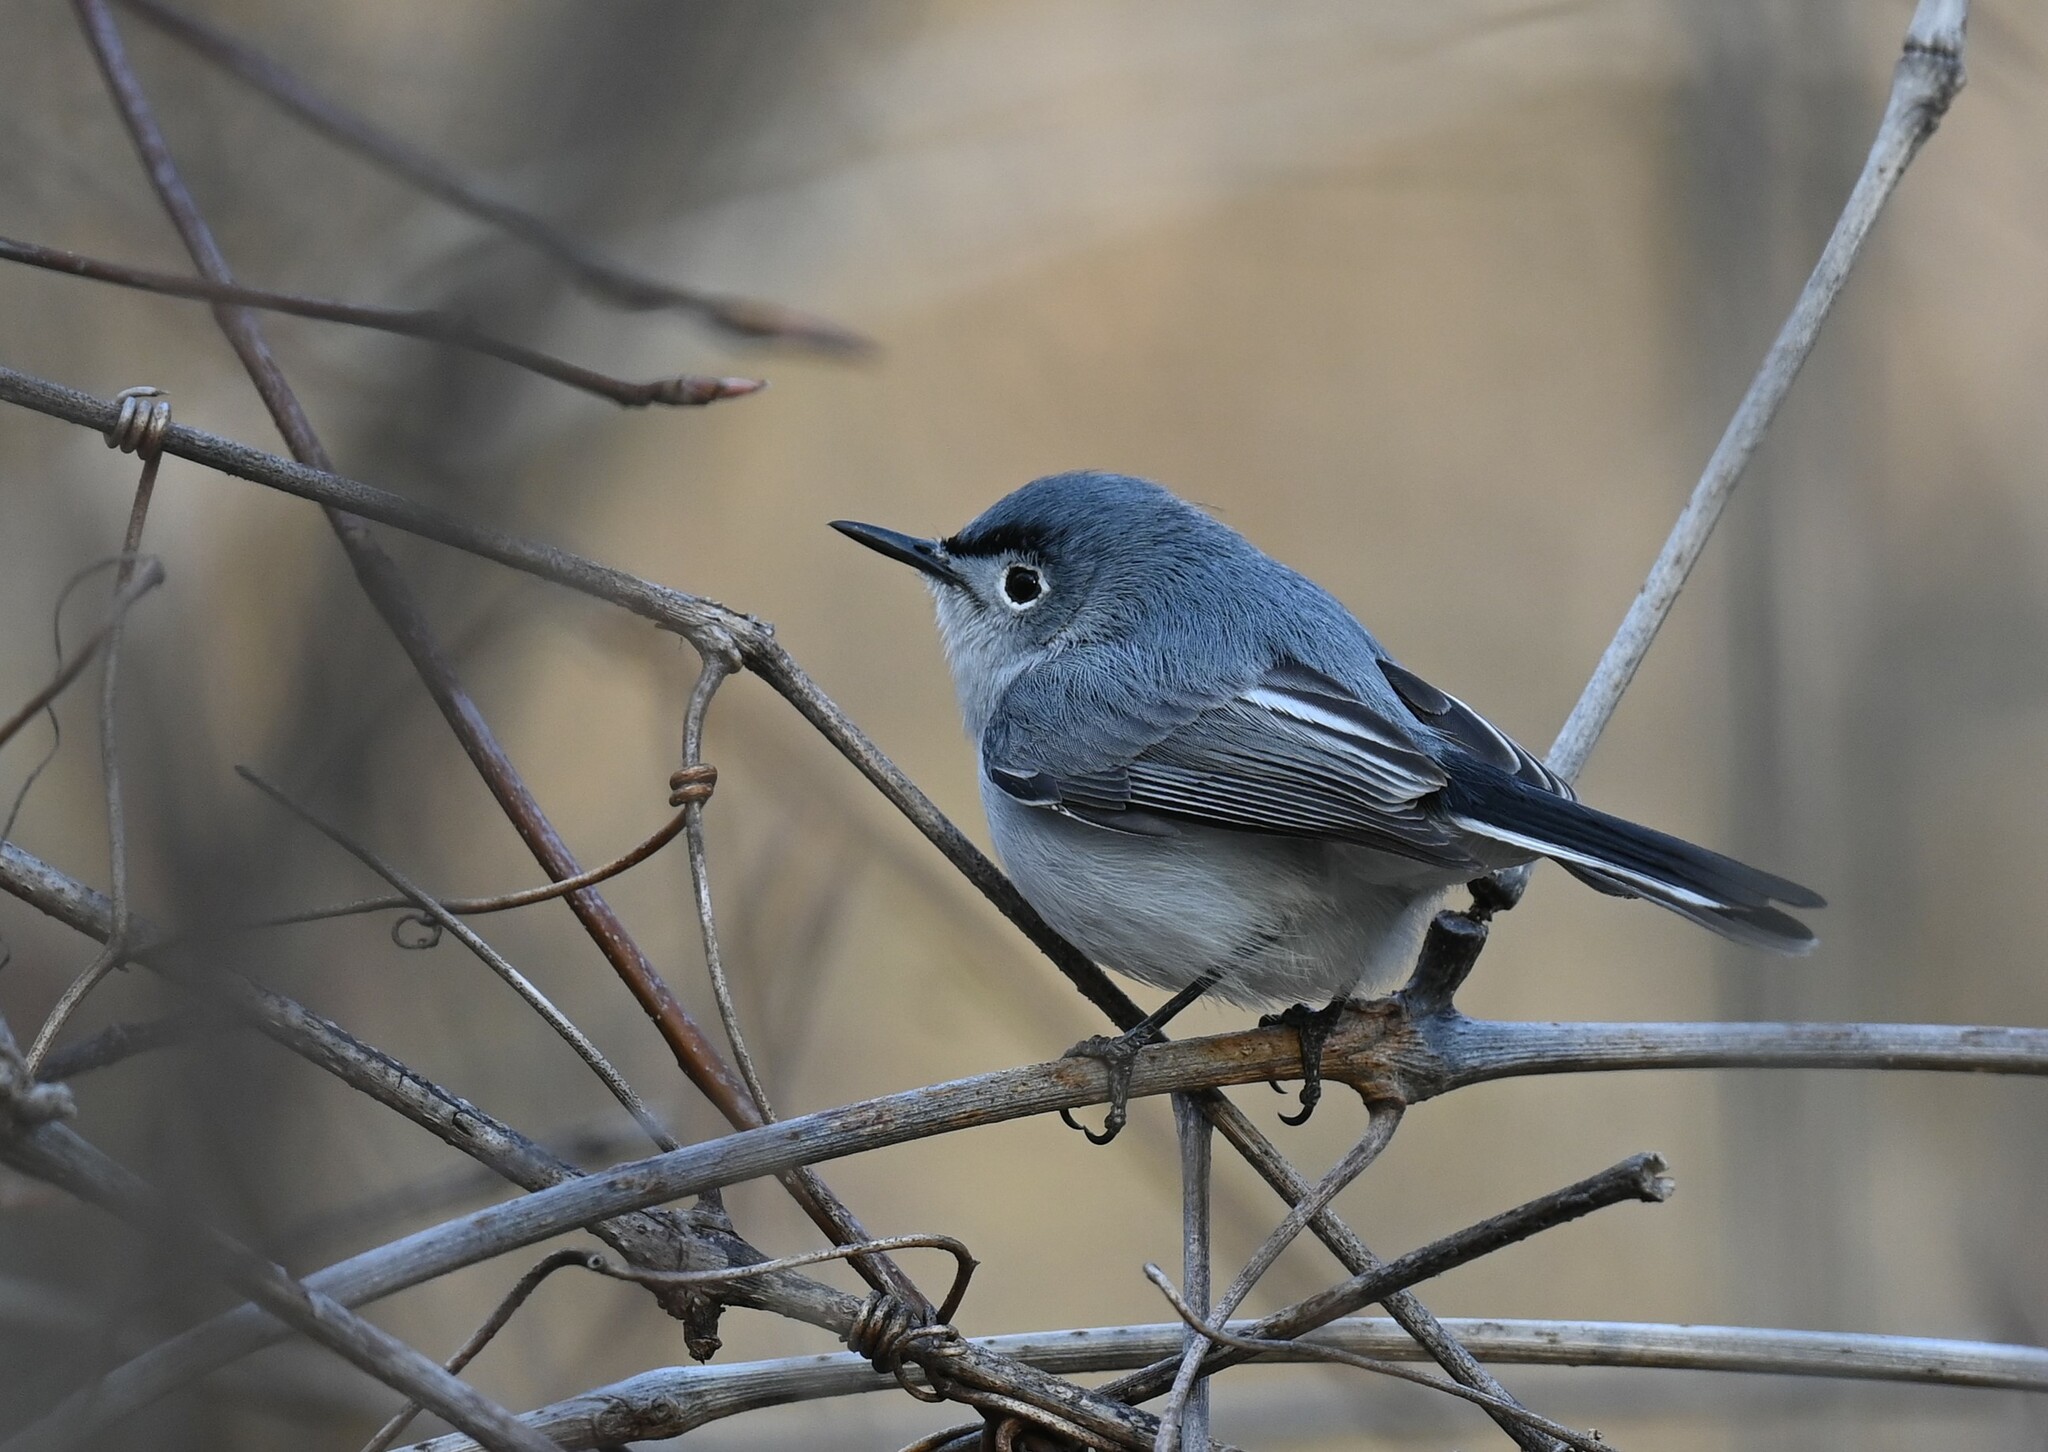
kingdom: Animalia
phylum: Chordata
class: Aves
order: Passeriformes
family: Polioptilidae
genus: Polioptila
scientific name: Polioptila caerulea
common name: Blue-gray gnatcatcher
